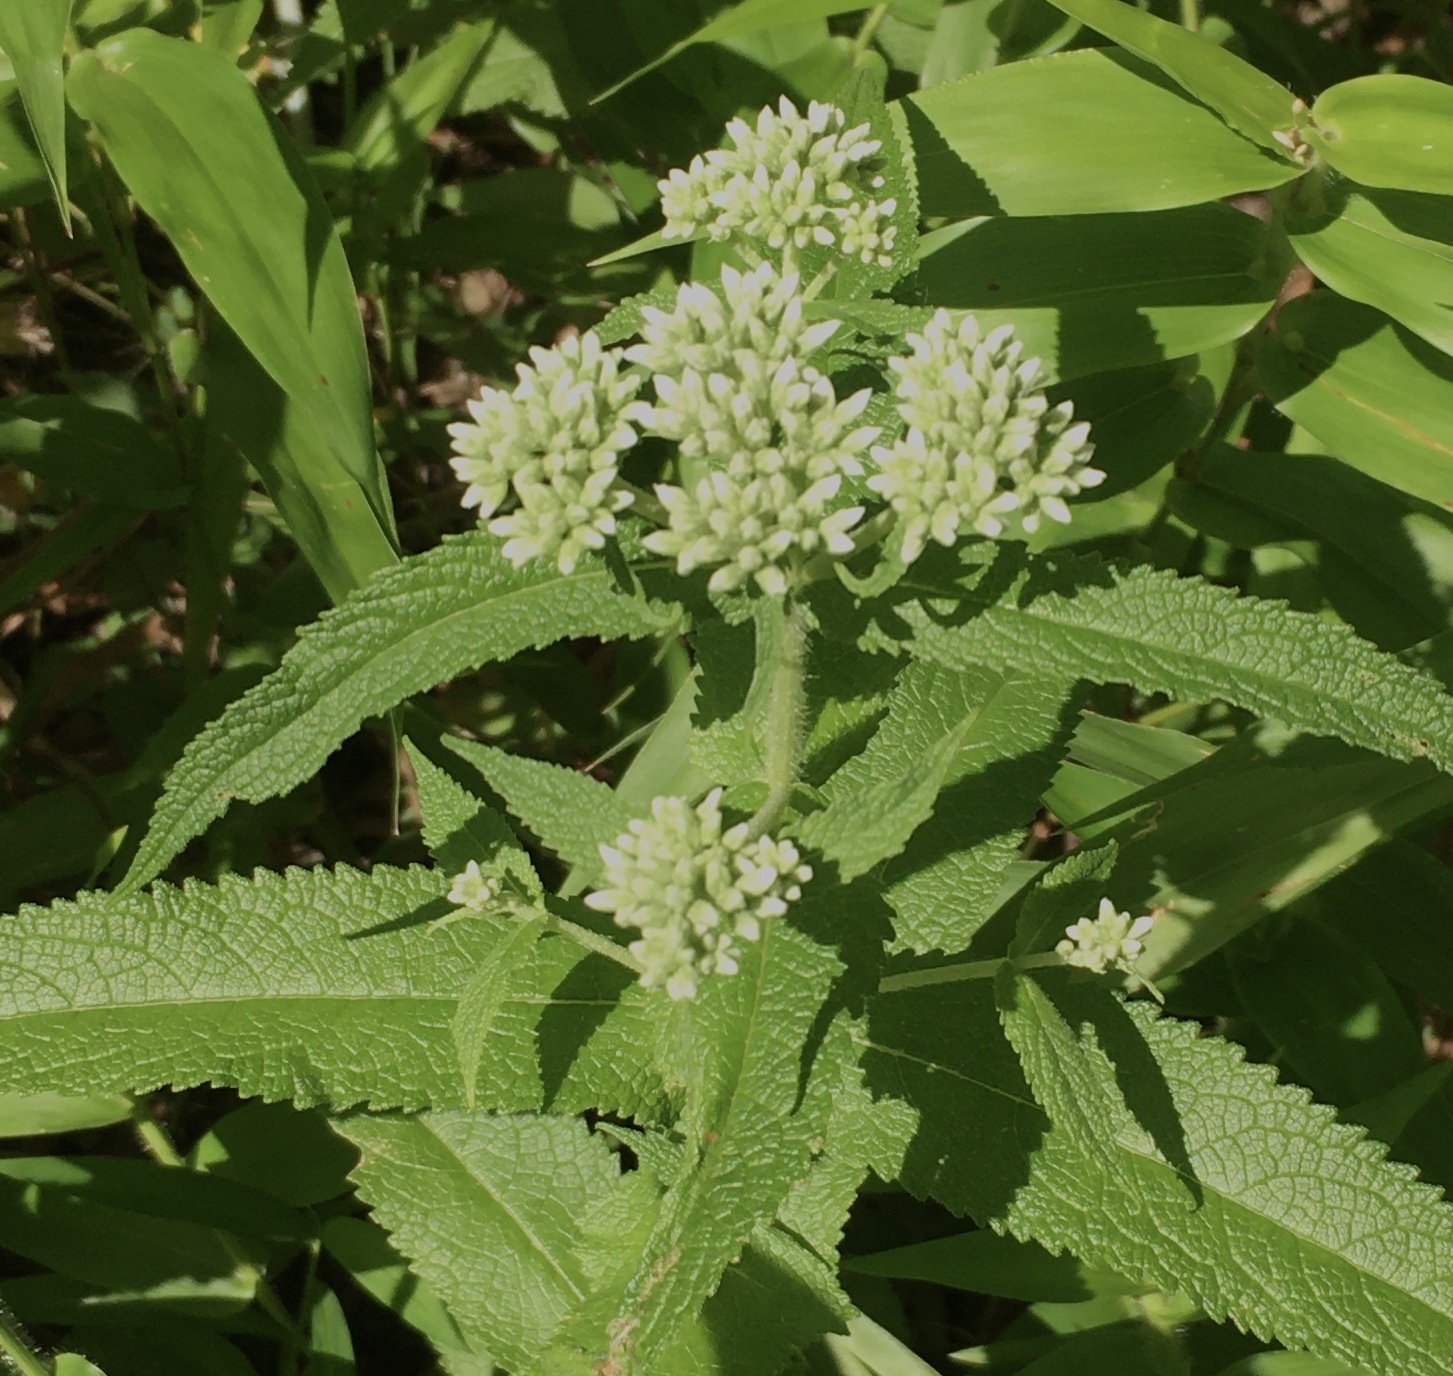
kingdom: Plantae
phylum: Tracheophyta
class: Magnoliopsida
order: Asterales
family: Asteraceae
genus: Eupatorium
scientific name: Eupatorium perfoliatum
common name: Boneset
